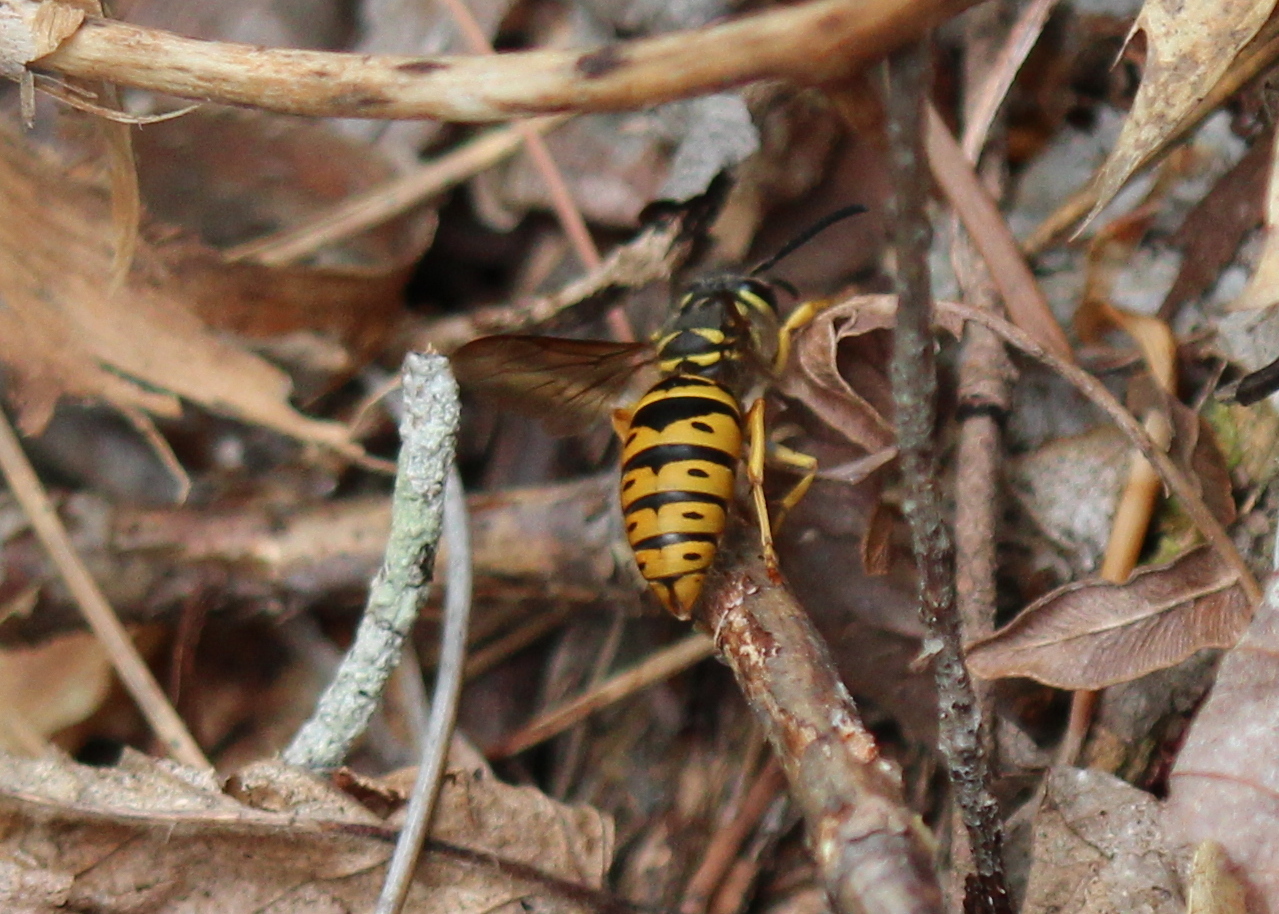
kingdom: Animalia
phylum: Arthropoda
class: Insecta
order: Hymenoptera
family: Vespidae
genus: Vespula
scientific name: Vespula maculifrons
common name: Eastern yellowjacket
